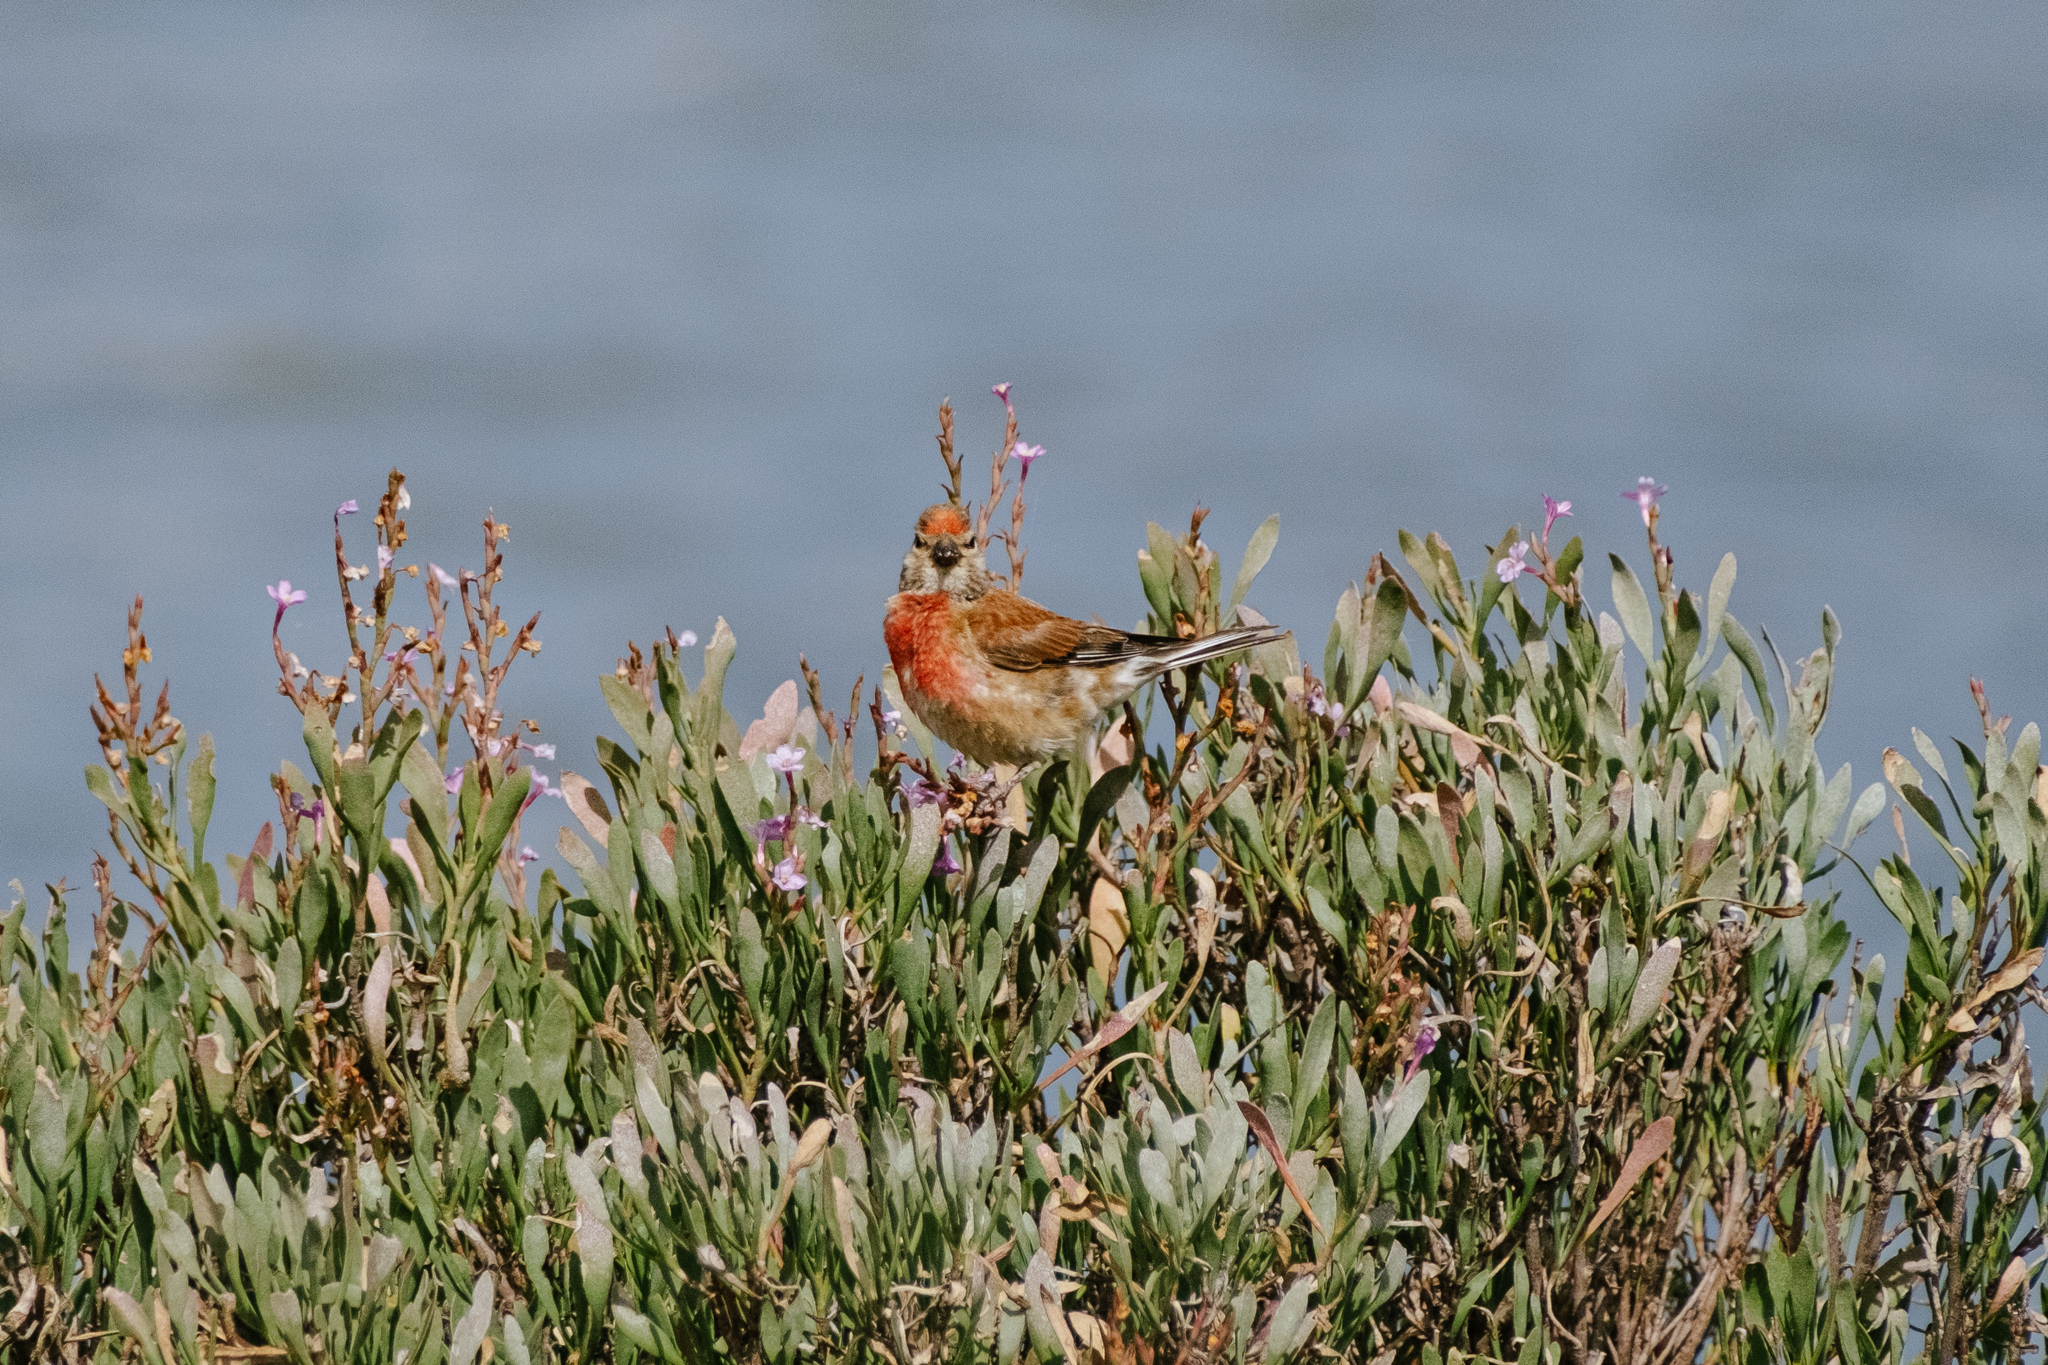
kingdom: Animalia
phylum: Chordata
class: Aves
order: Passeriformes
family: Fringillidae
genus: Linaria
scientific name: Linaria cannabina
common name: Common linnet
